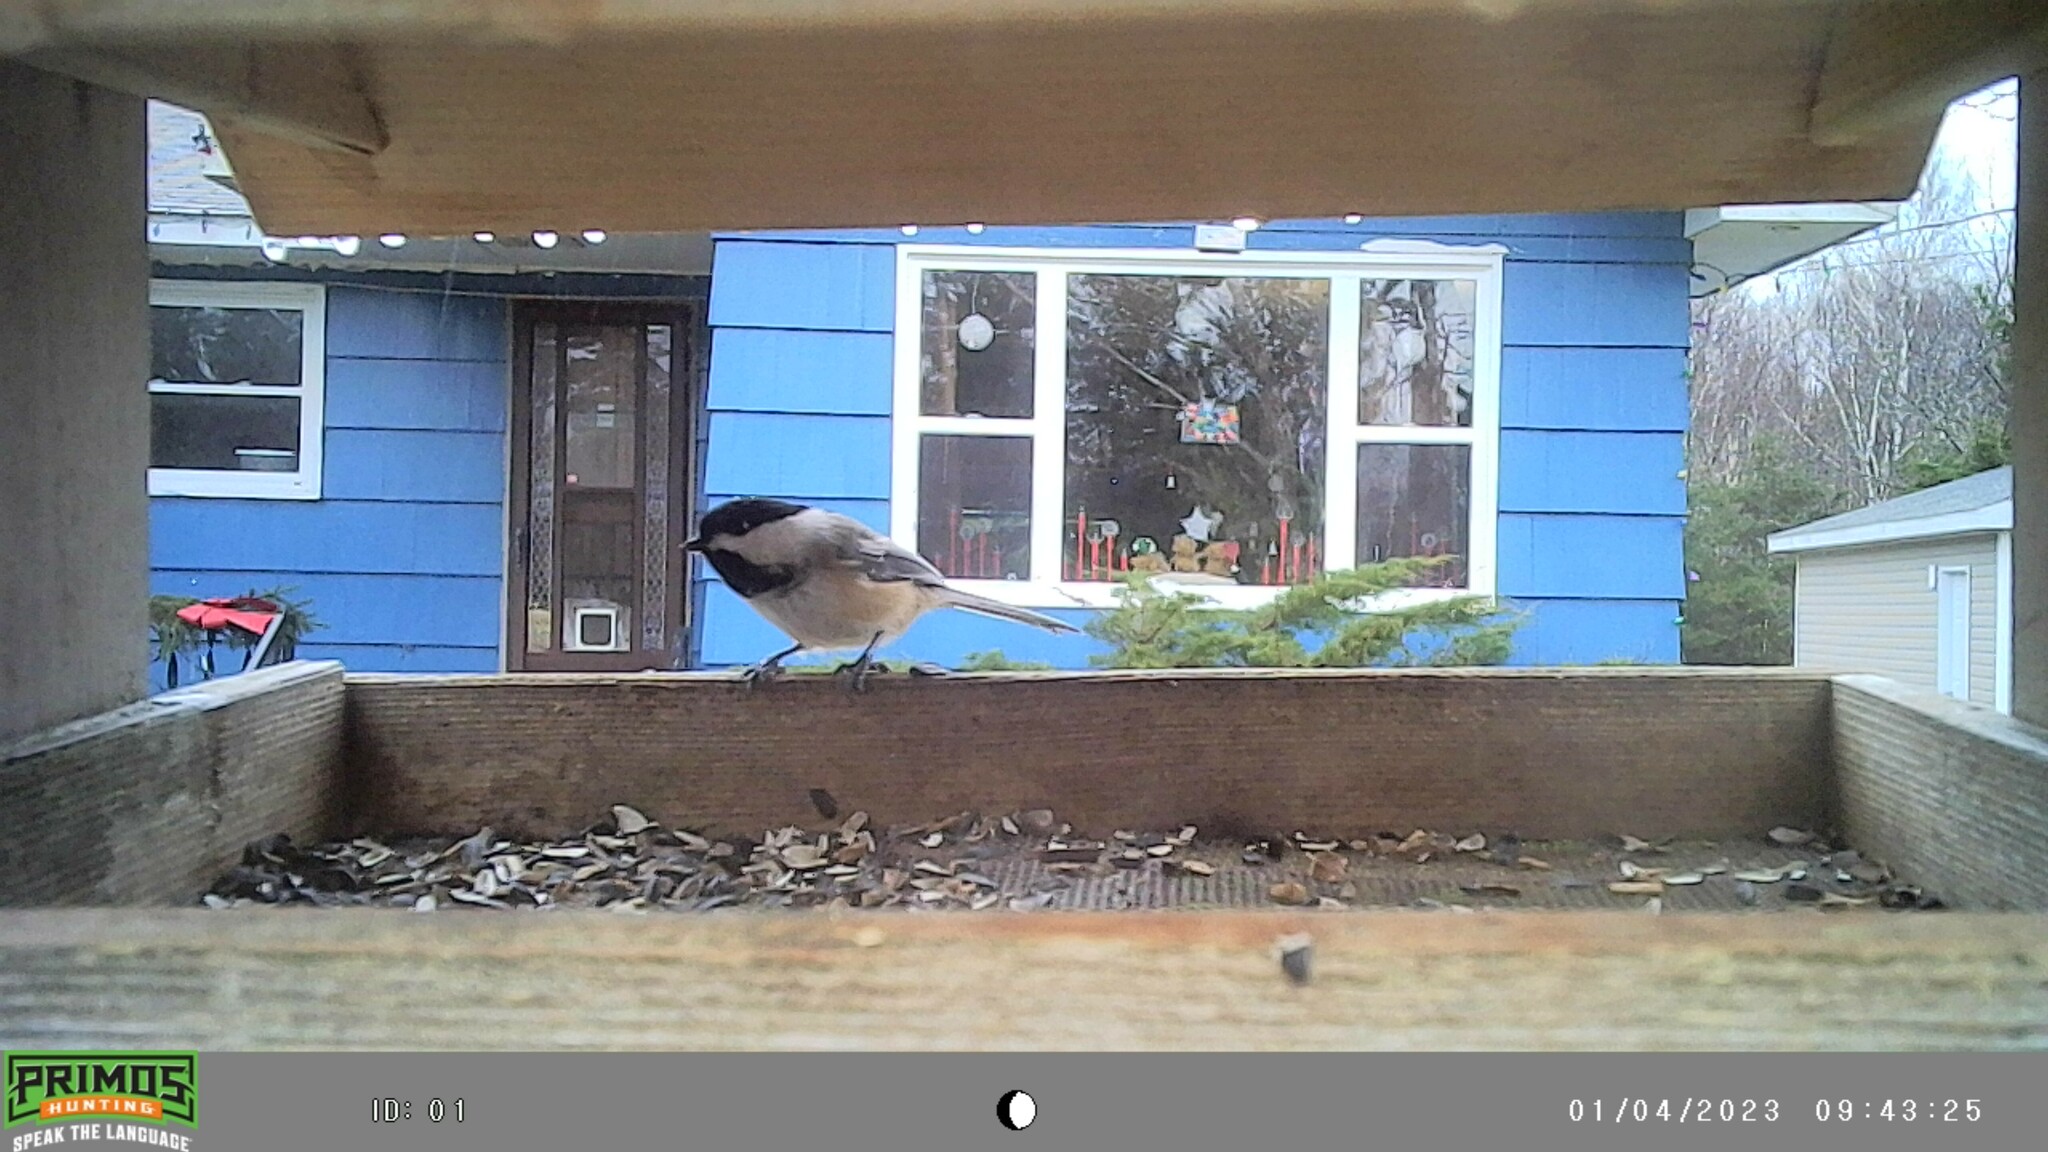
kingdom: Animalia
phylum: Chordata
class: Aves
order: Passeriformes
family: Paridae
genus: Poecile
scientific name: Poecile atricapillus
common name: Black-capped chickadee
